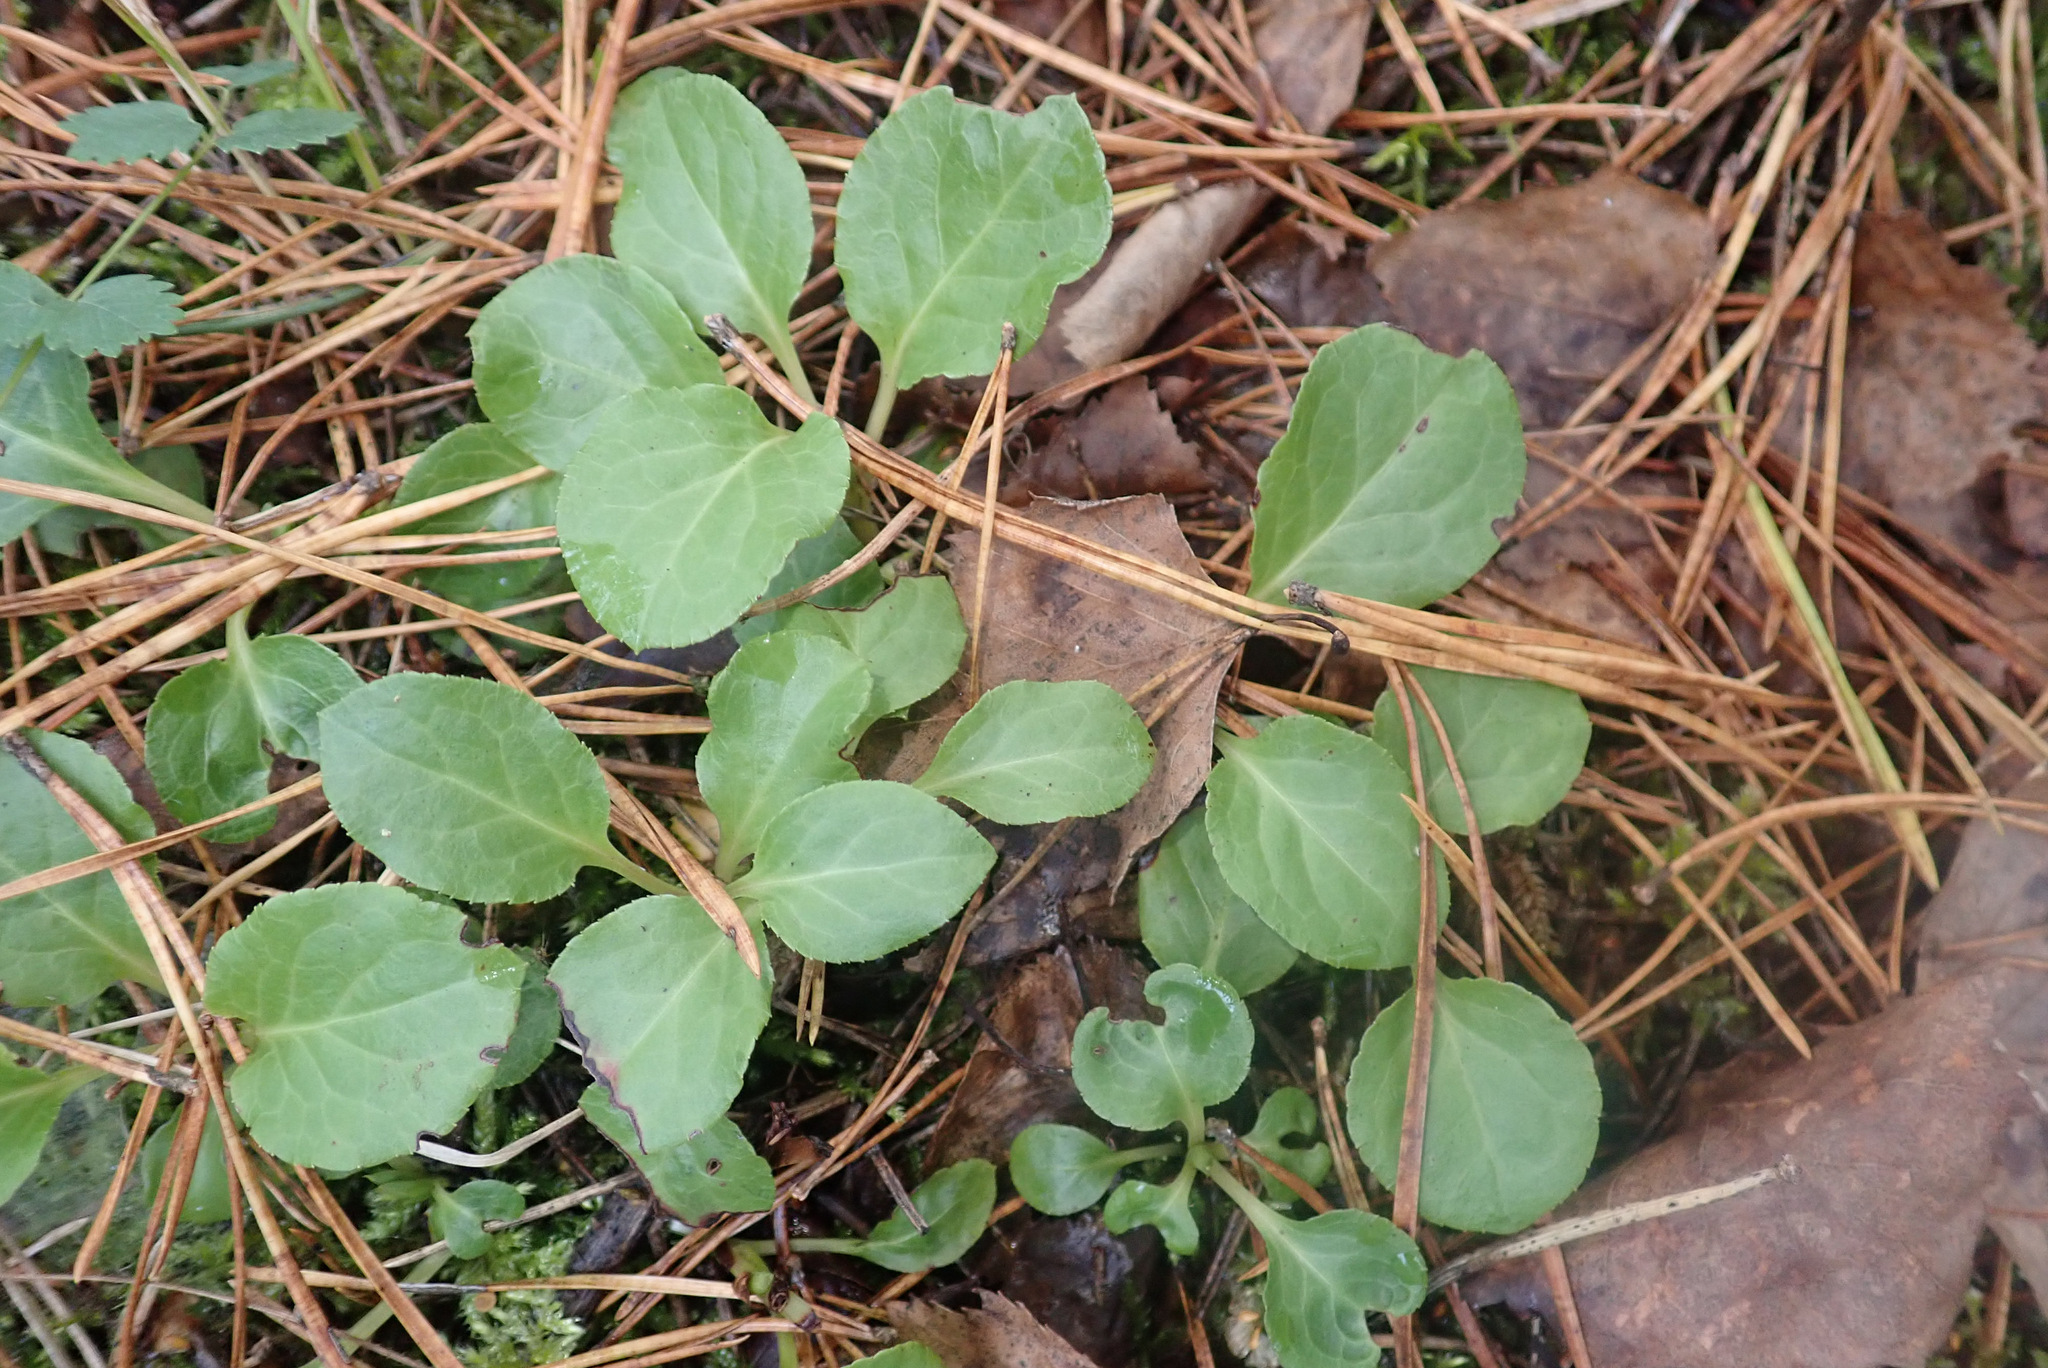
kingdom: Plantae
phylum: Tracheophyta
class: Magnoliopsida
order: Ericales
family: Ericaceae
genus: Pyrola
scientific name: Pyrola minor
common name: Common wintergreen
